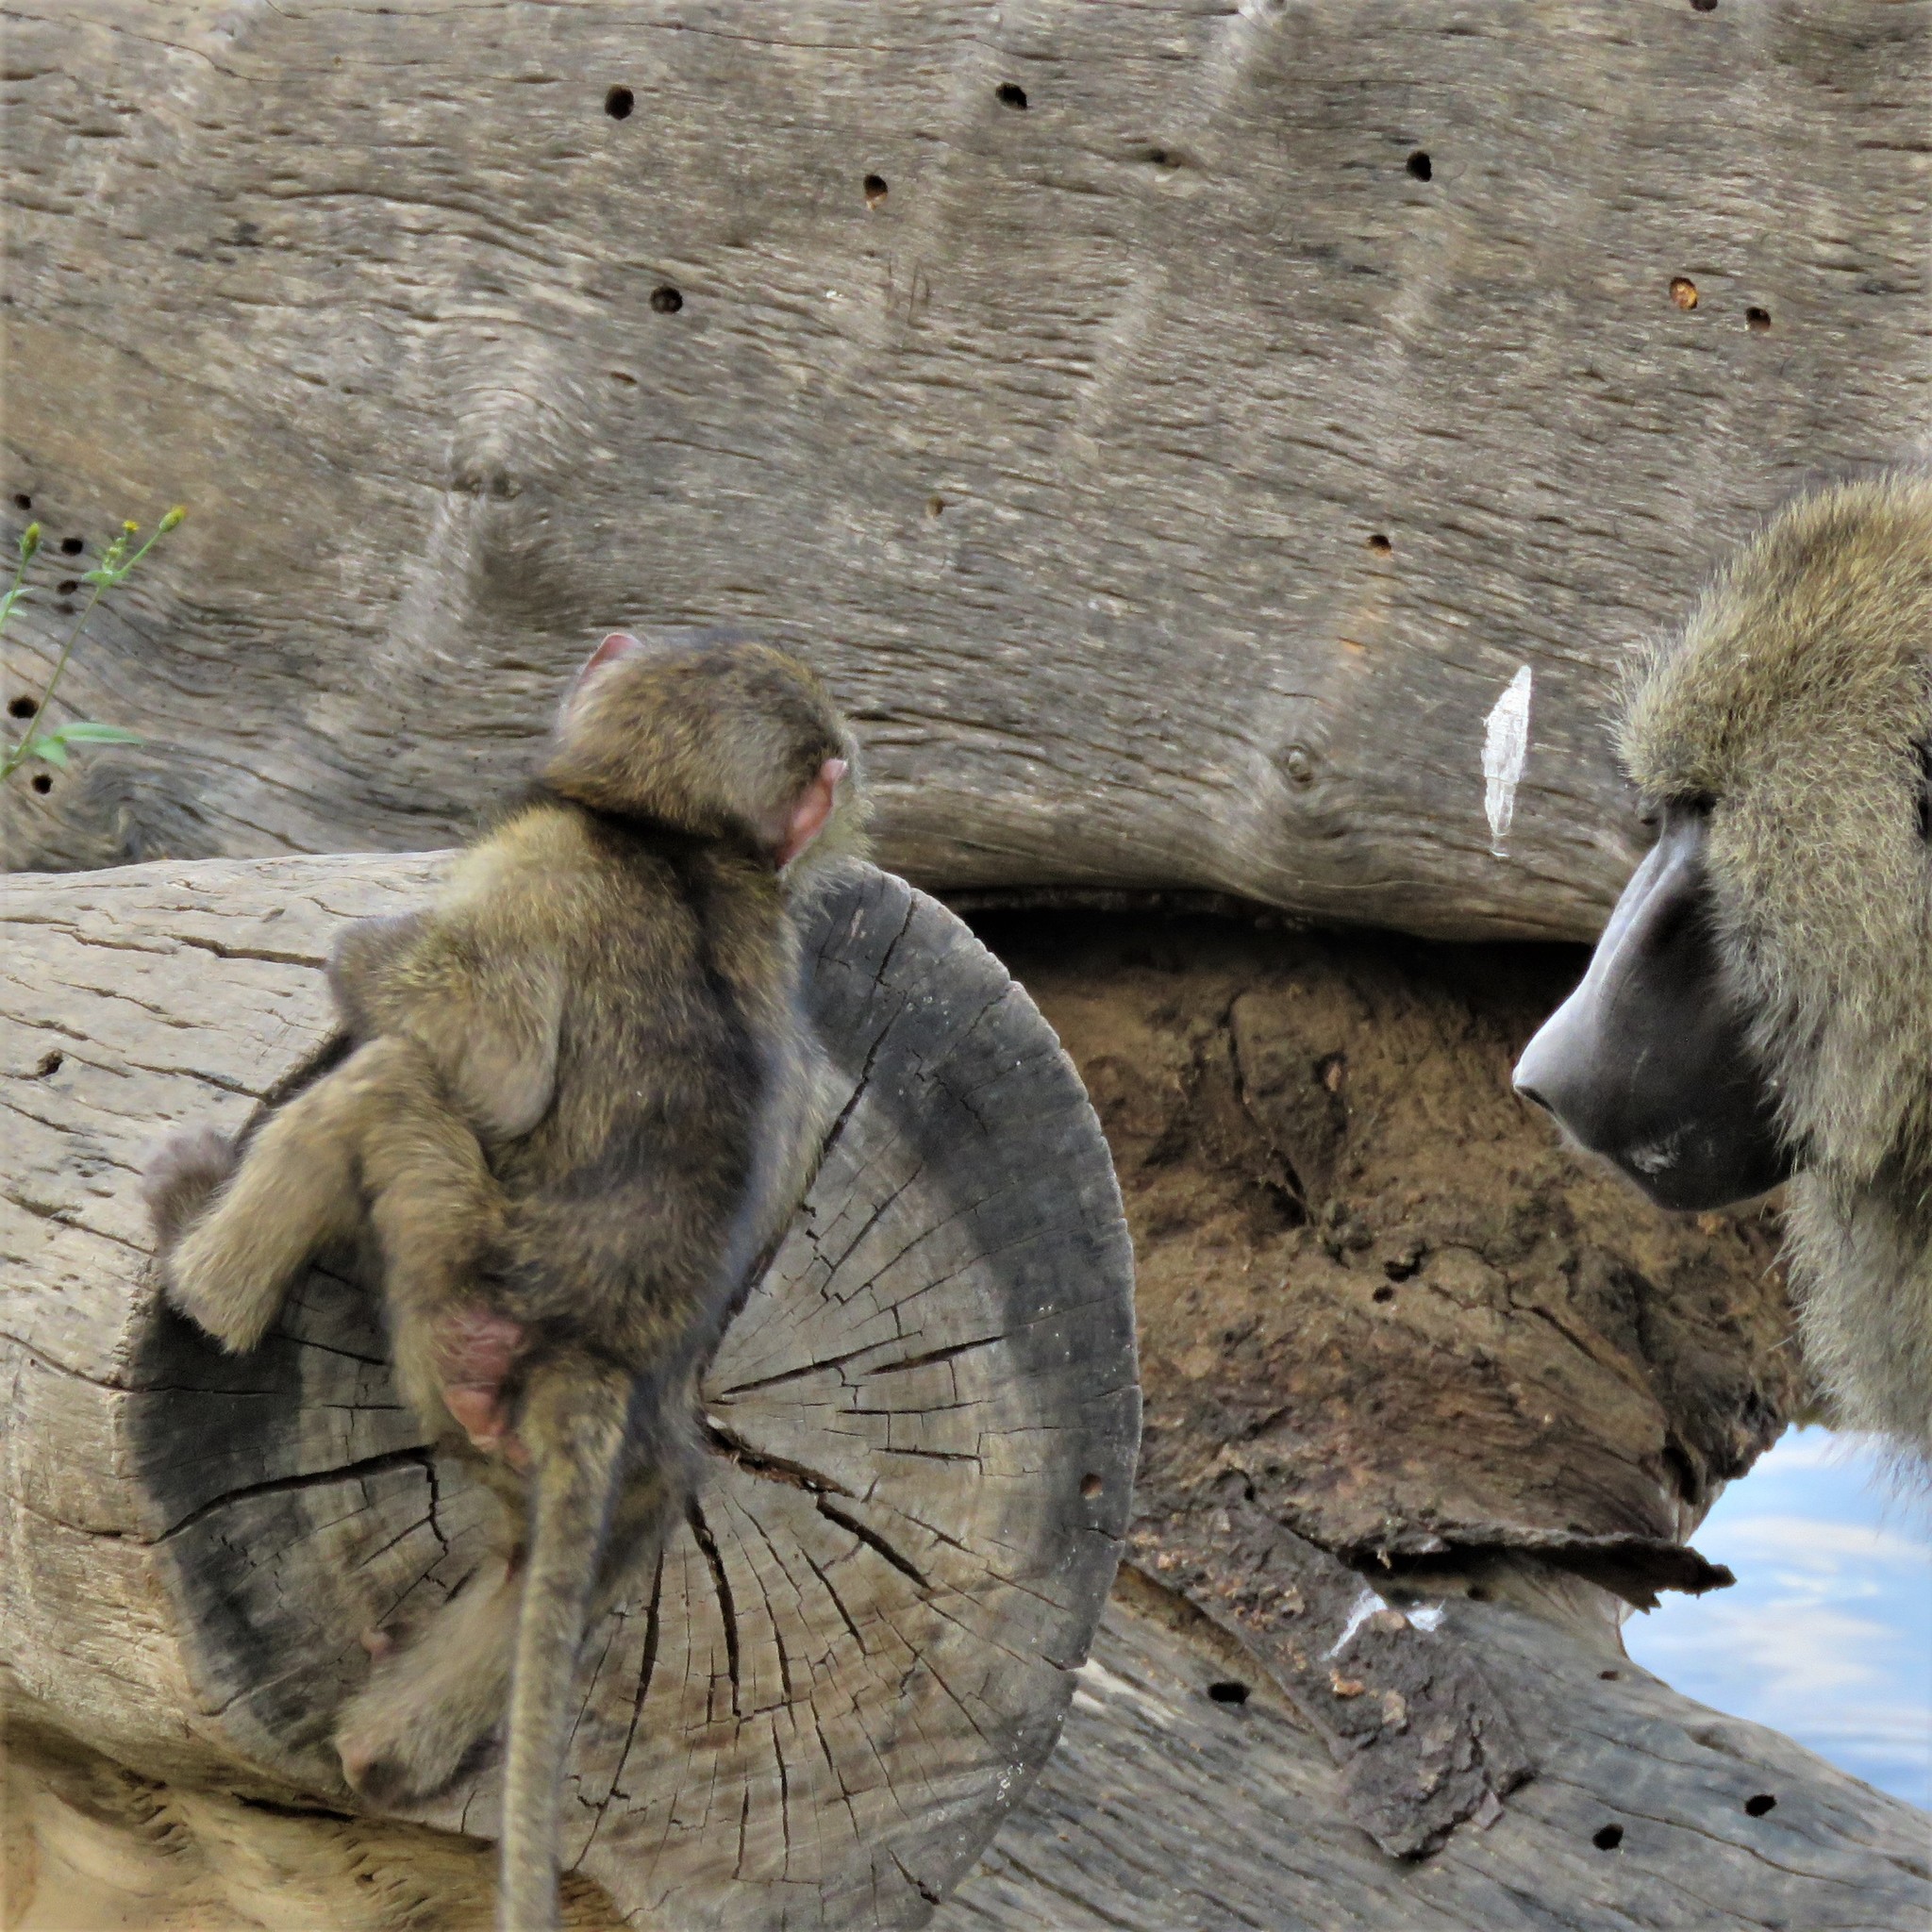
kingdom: Animalia
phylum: Chordata
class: Mammalia
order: Primates
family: Cercopithecidae
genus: Papio
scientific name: Papio anubis
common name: Olive baboon
